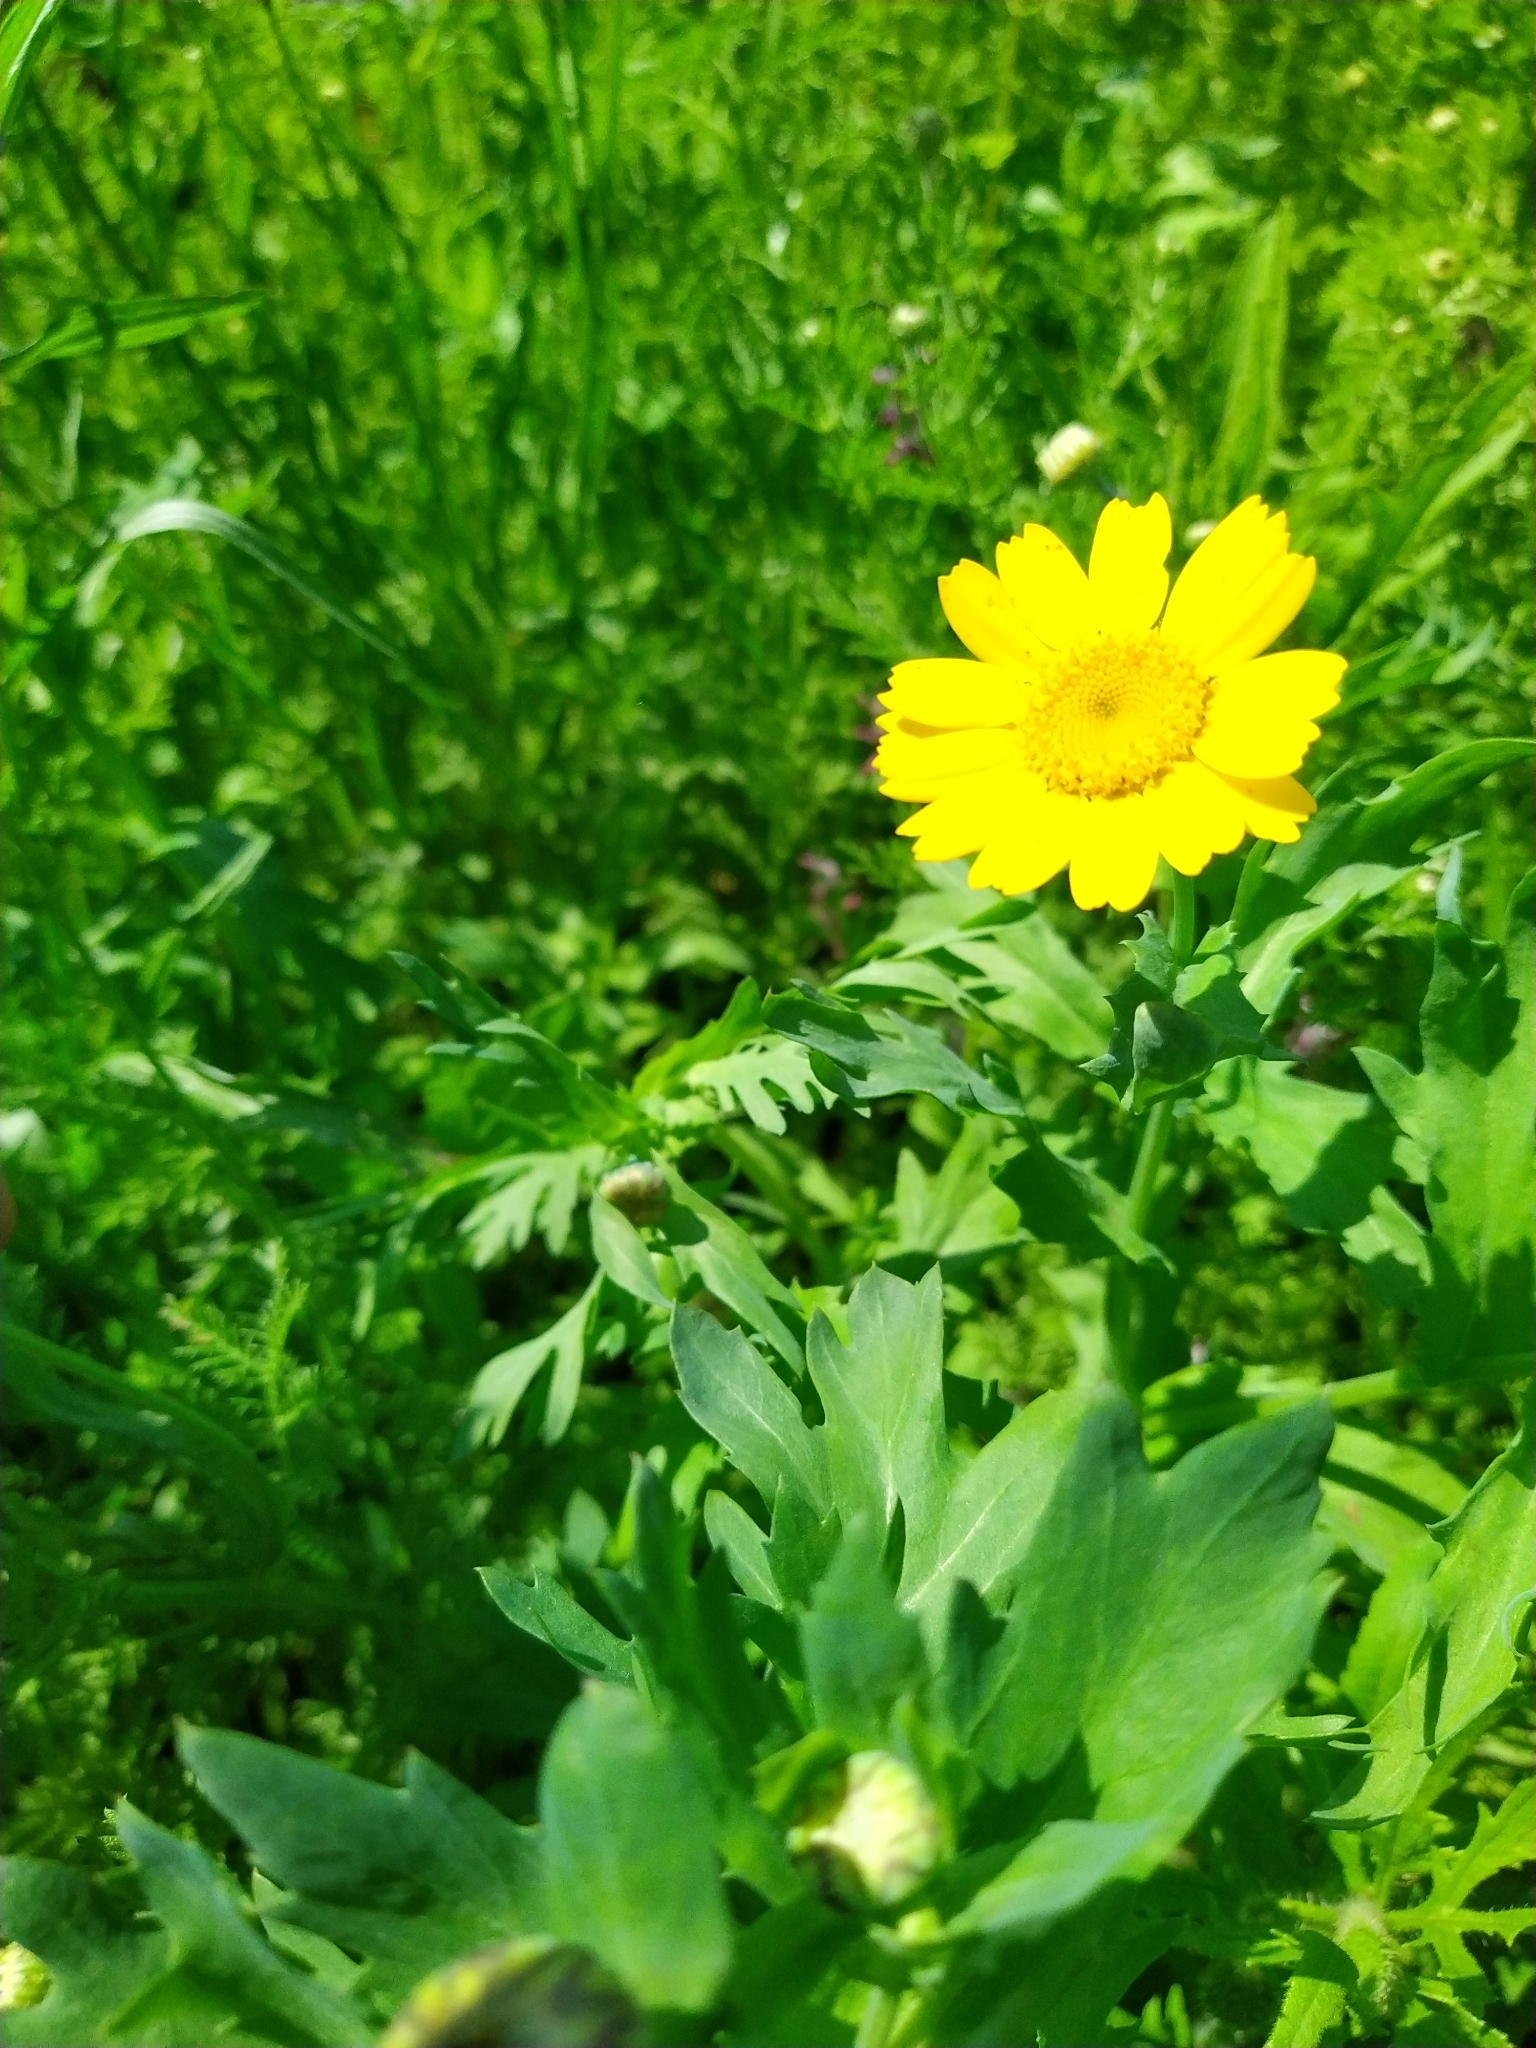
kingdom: Plantae
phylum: Tracheophyta
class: Magnoliopsida
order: Asterales
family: Asteraceae
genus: Glebionis
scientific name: Glebionis segetum
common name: Corndaisy
